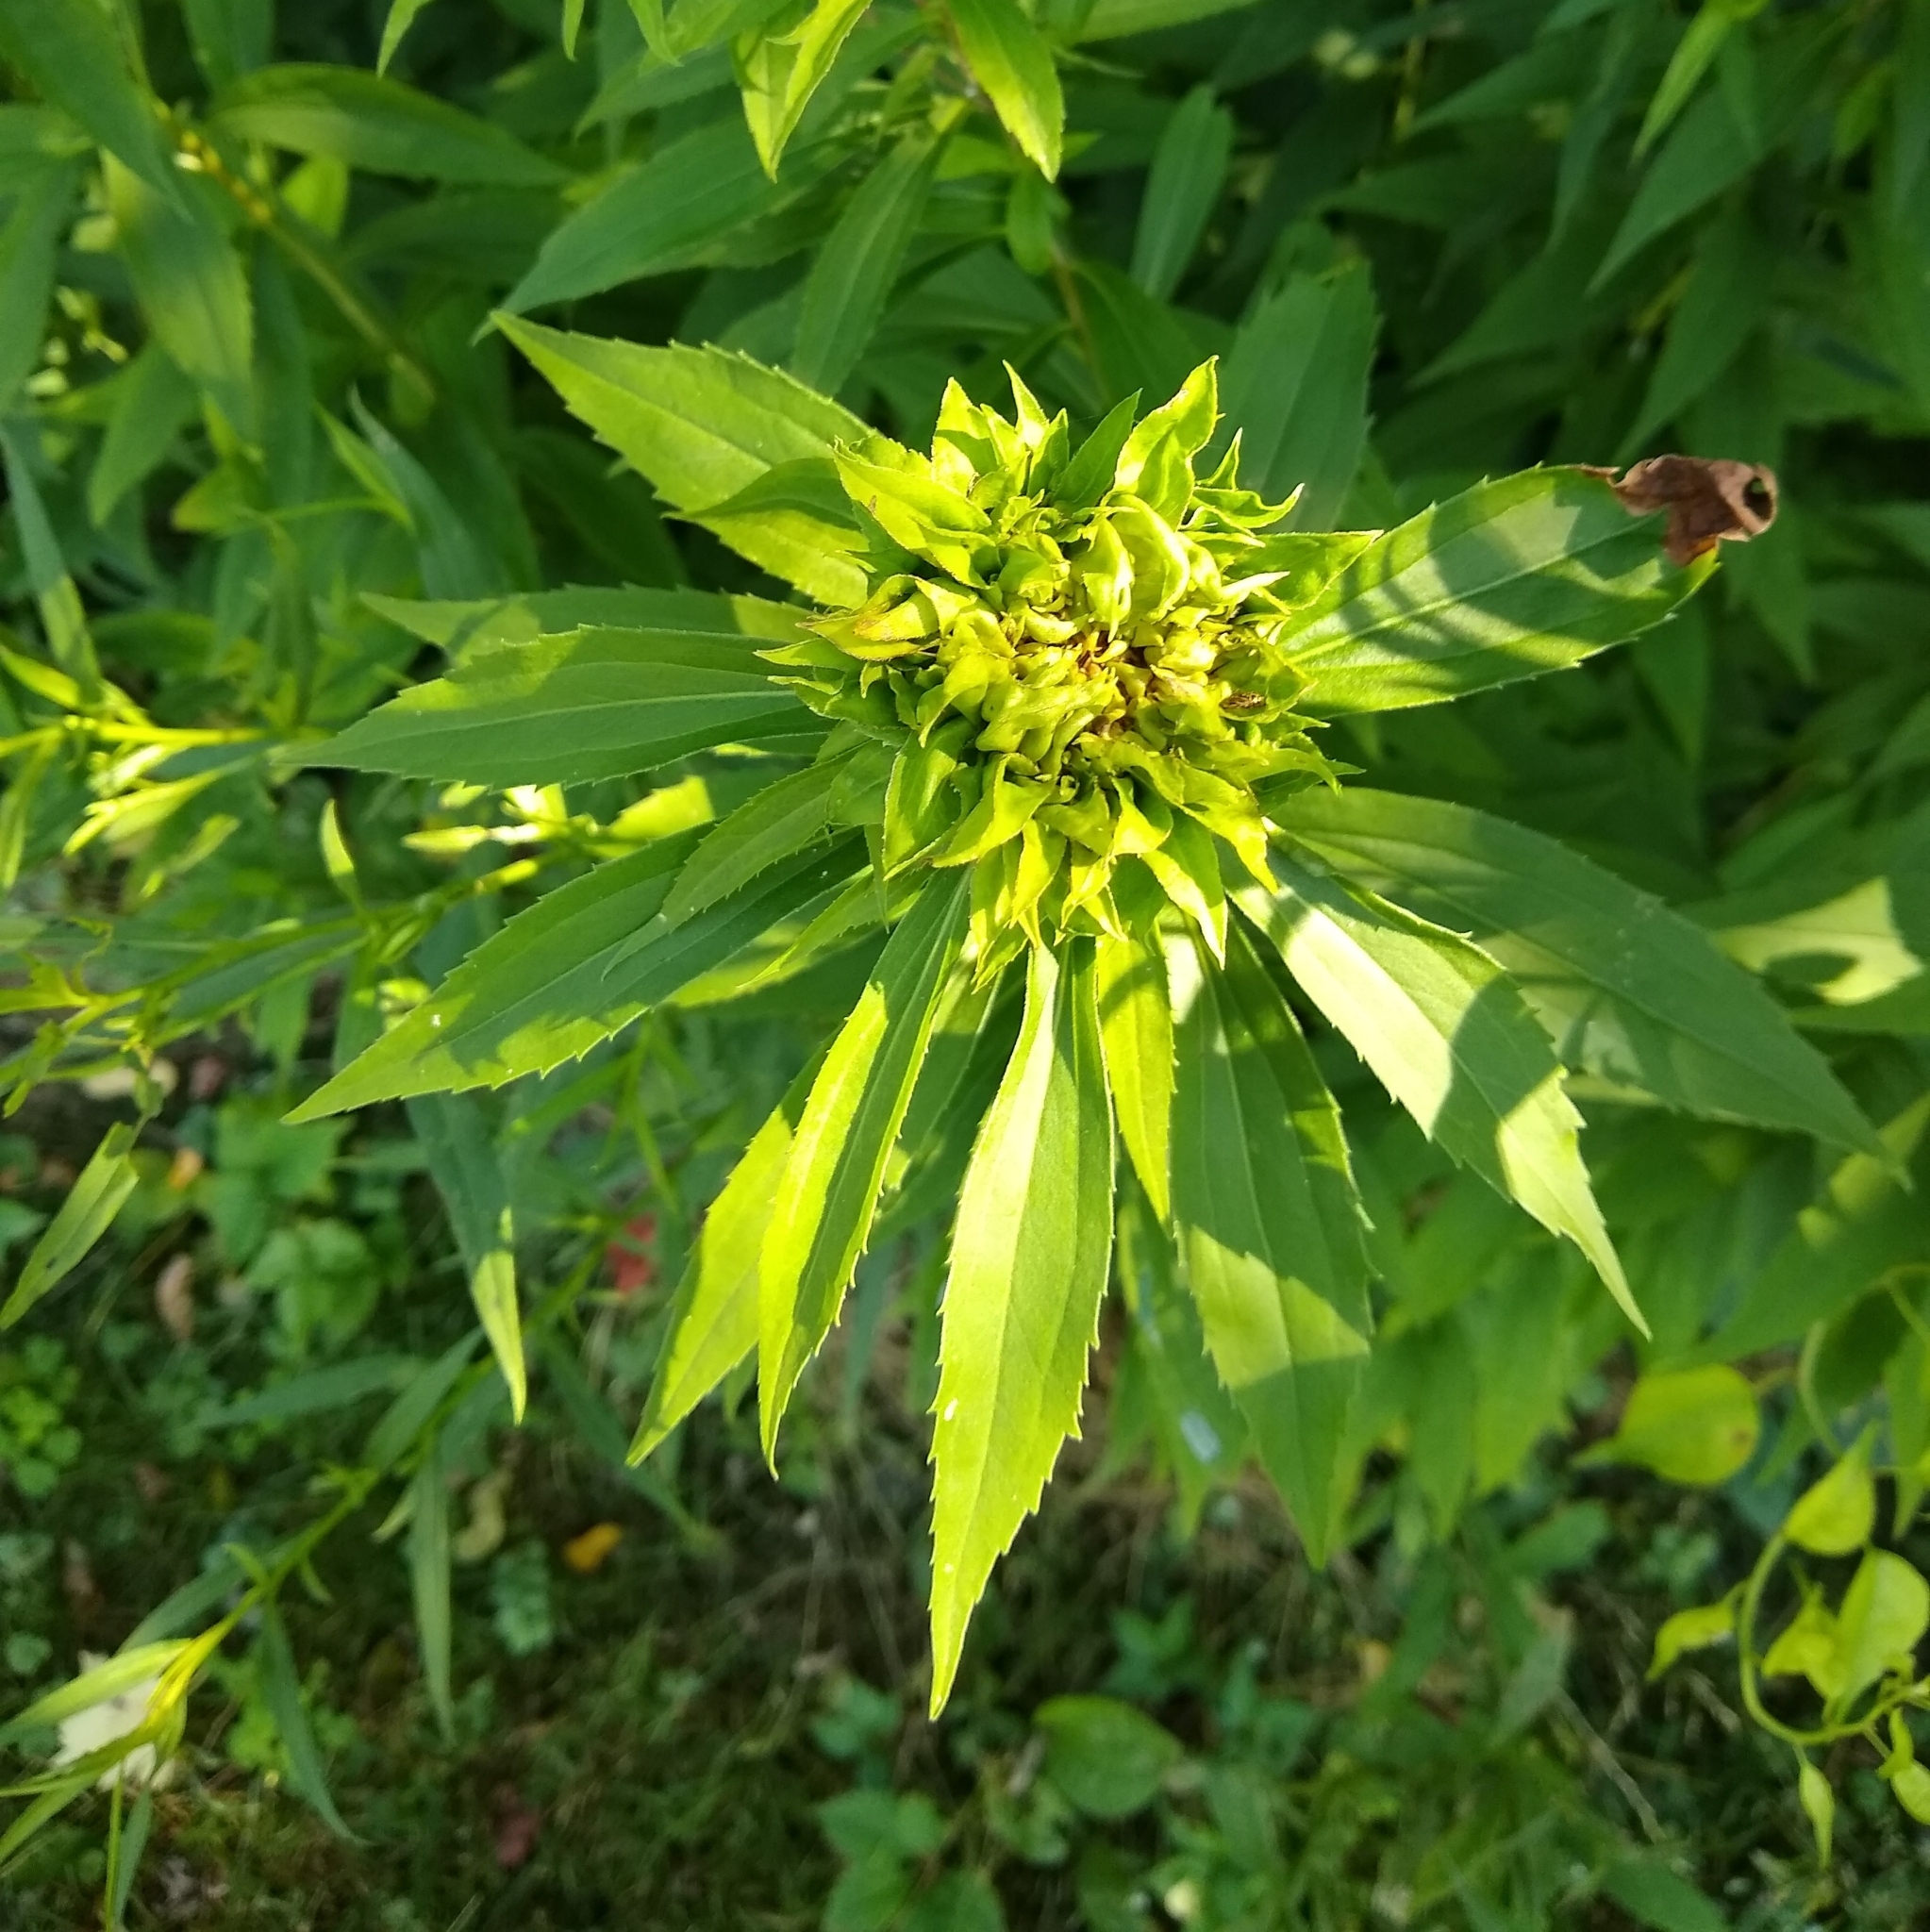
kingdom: Animalia
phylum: Arthropoda
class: Insecta
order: Diptera
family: Cecidomyiidae
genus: Rhopalomyia
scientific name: Rhopalomyia capitata
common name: Giant goldenrod bunch gall midge
